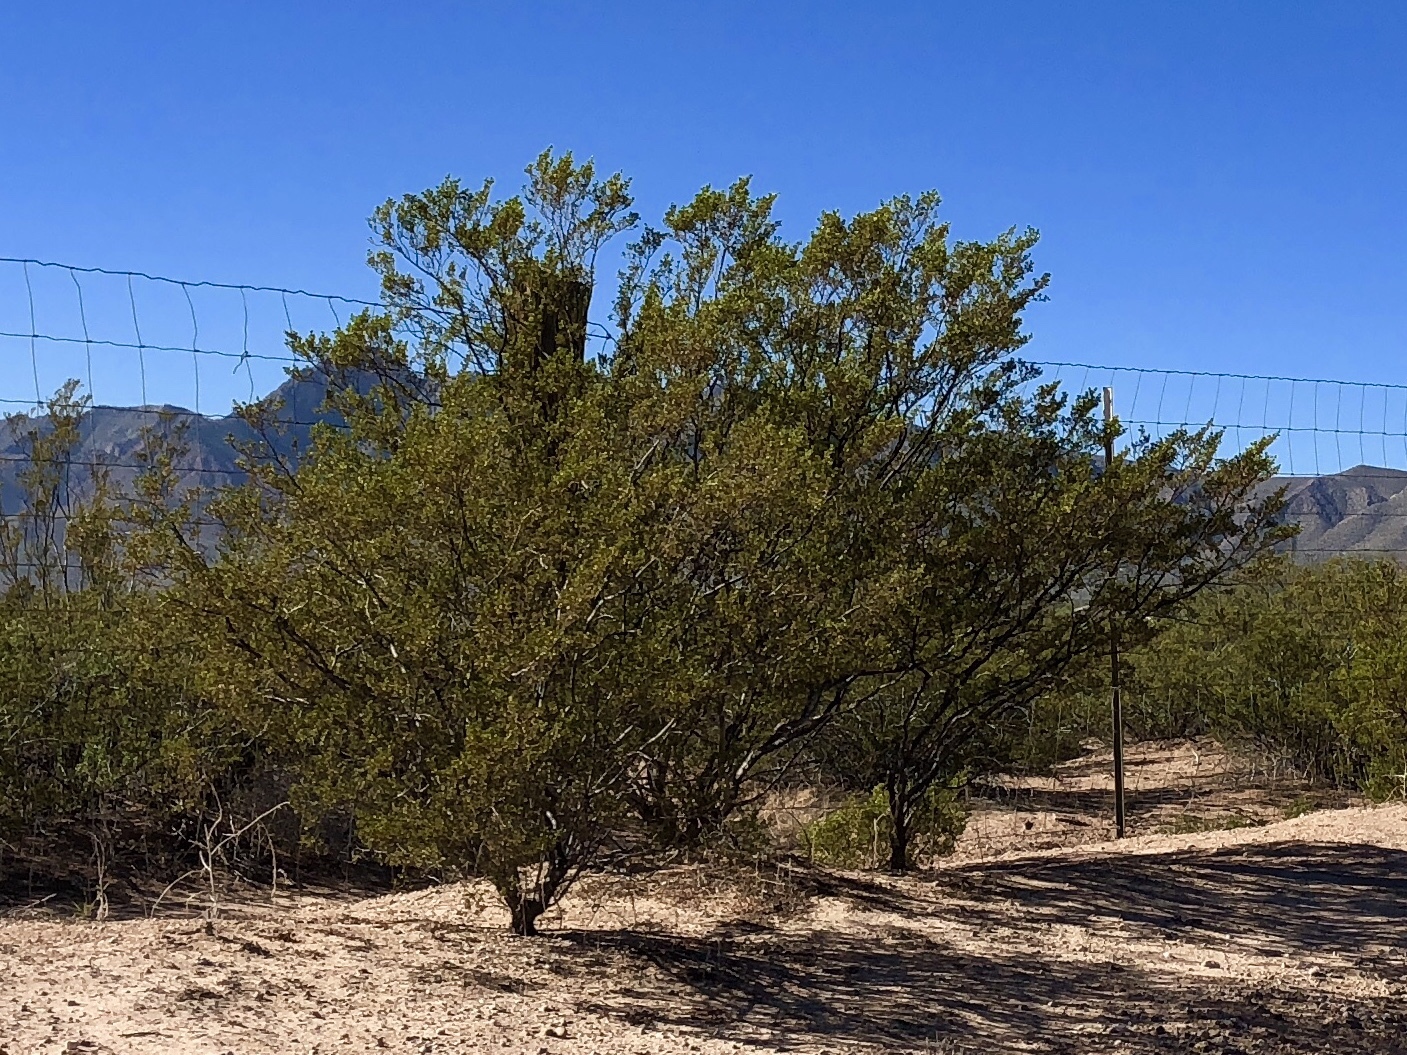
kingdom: Plantae
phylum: Tracheophyta
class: Magnoliopsida
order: Zygophyllales
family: Zygophyllaceae
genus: Larrea
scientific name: Larrea tridentata
